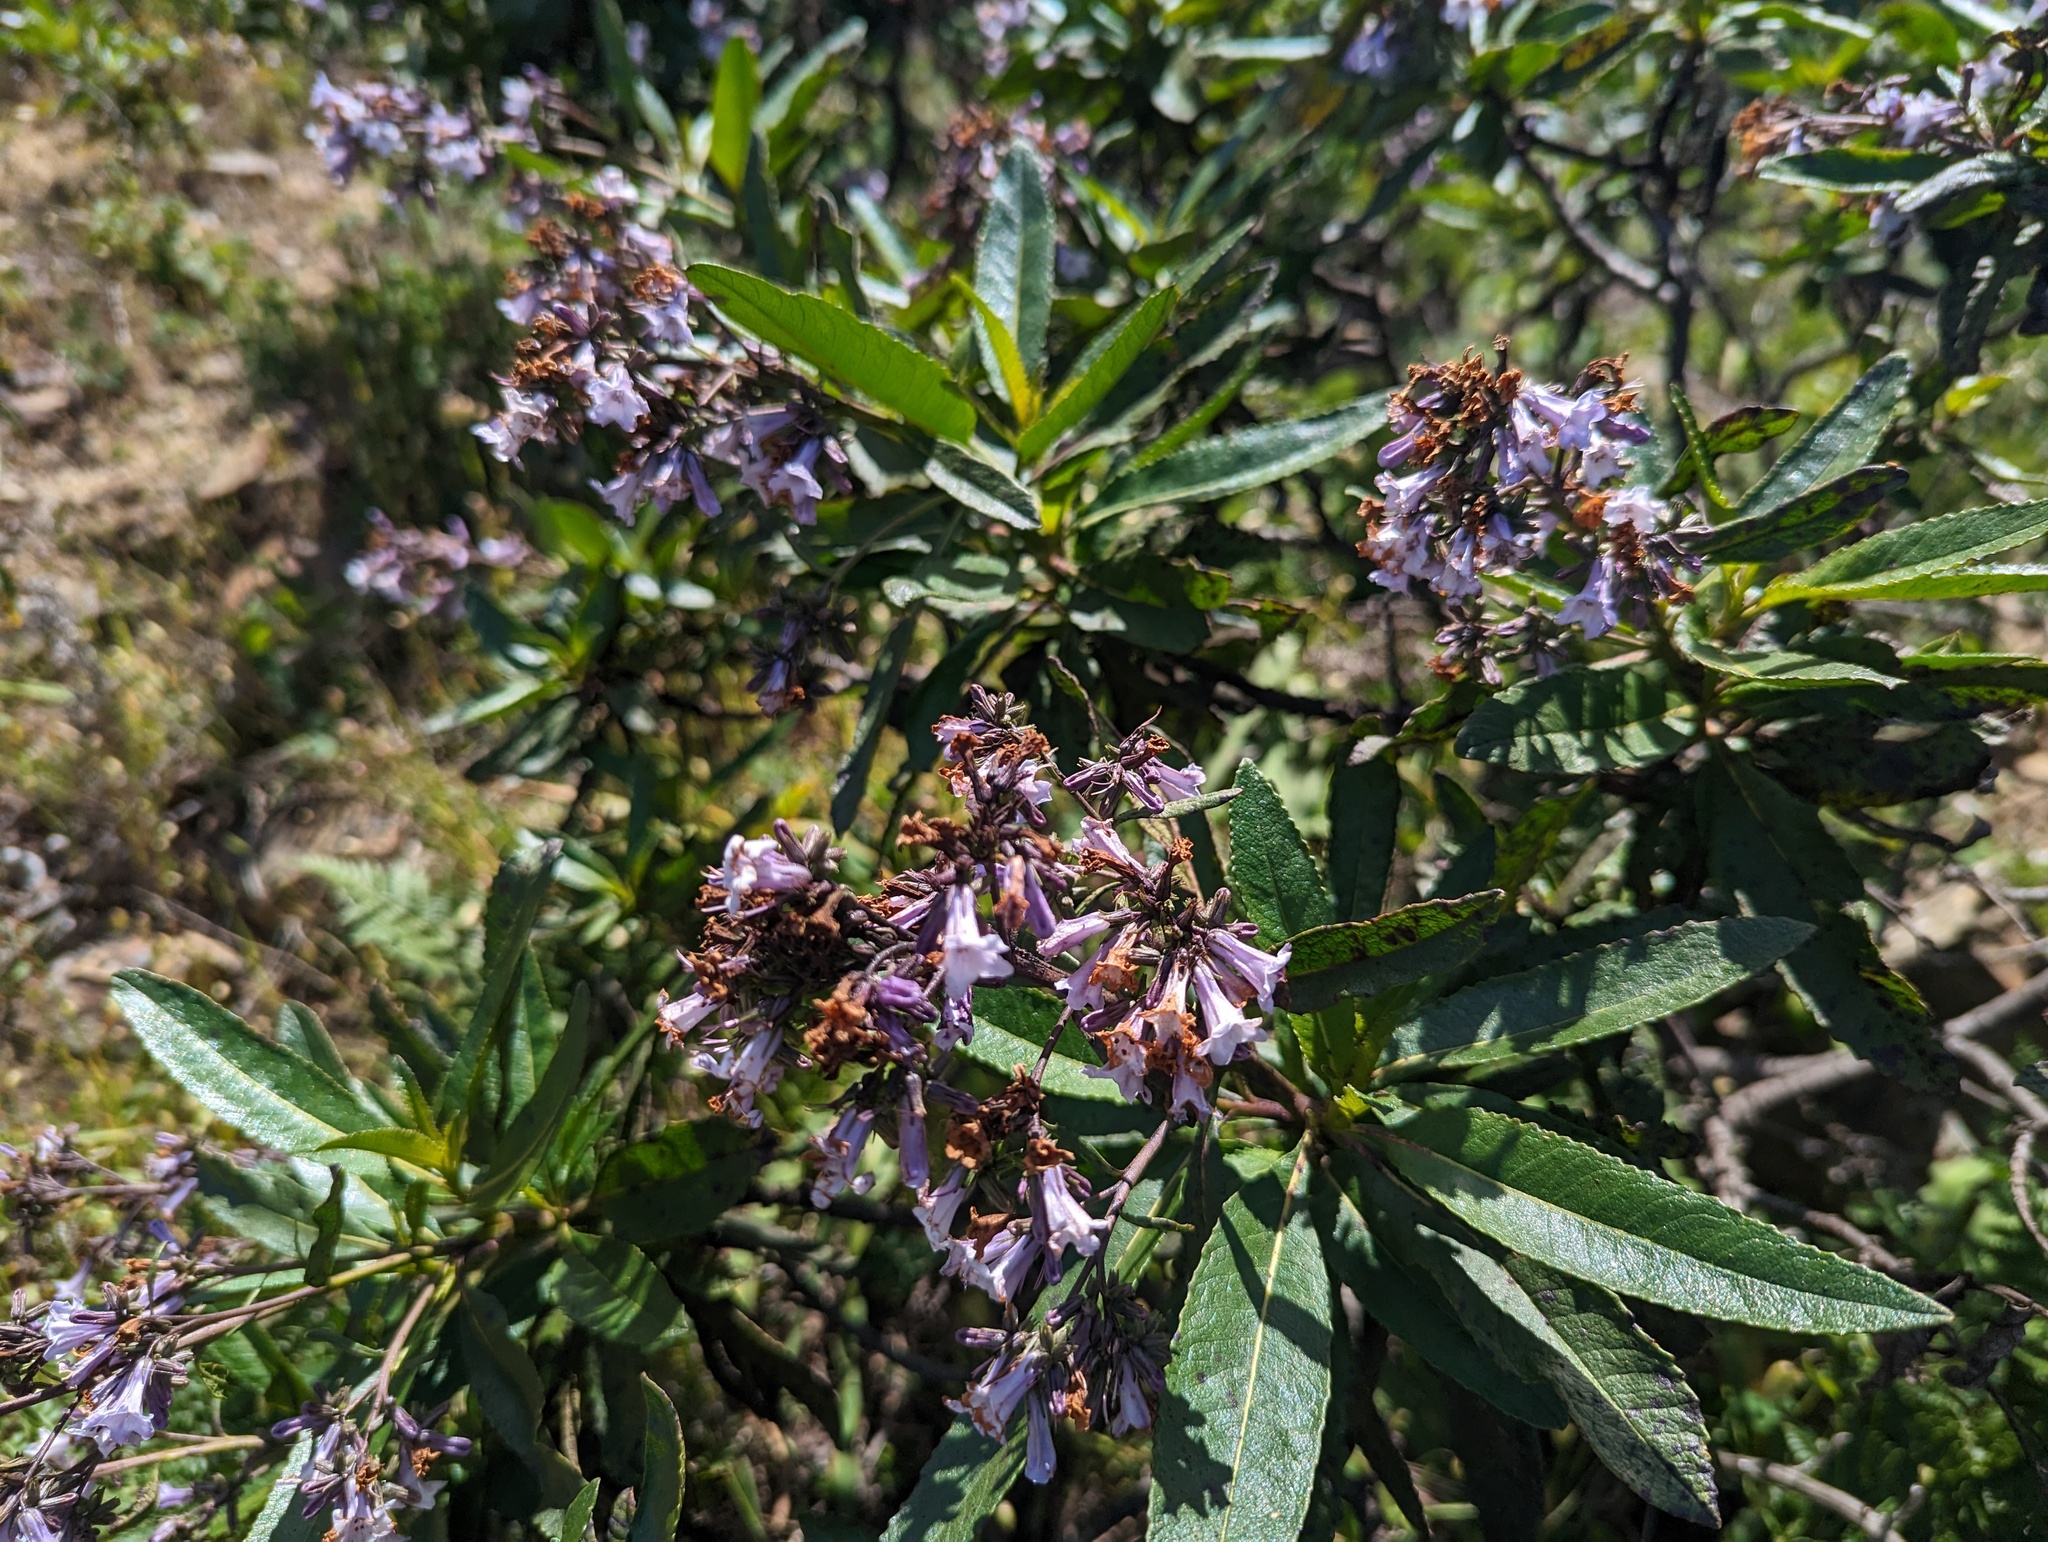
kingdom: Plantae
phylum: Tracheophyta
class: Magnoliopsida
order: Boraginales
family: Namaceae
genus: Eriodictyon
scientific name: Eriodictyon californicum
